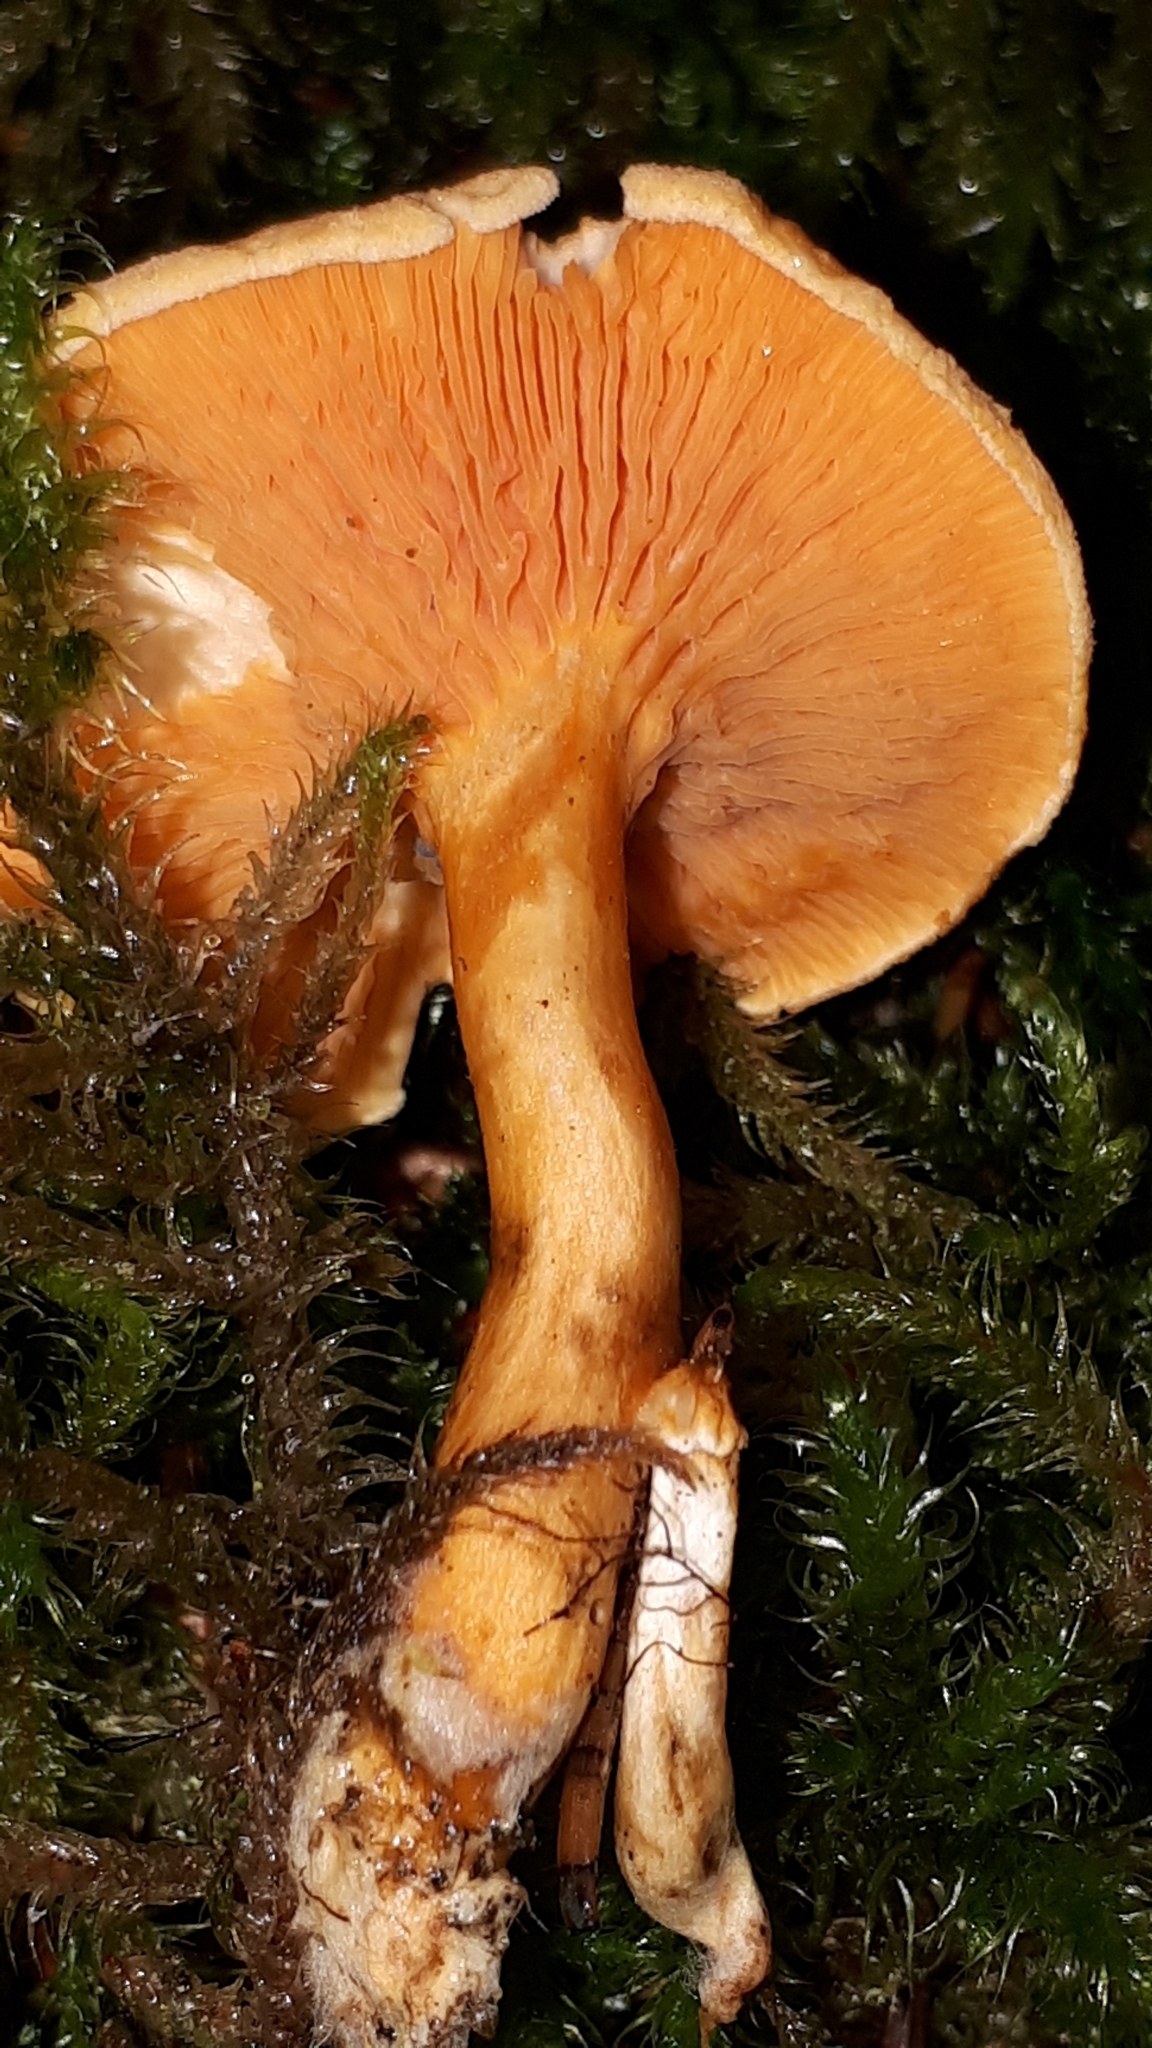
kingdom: Fungi
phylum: Basidiomycota
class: Agaricomycetes
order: Boletales
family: Hygrophoropsidaceae
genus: Hygrophoropsis
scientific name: Hygrophoropsis aurantiaca
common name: False chanterelle
